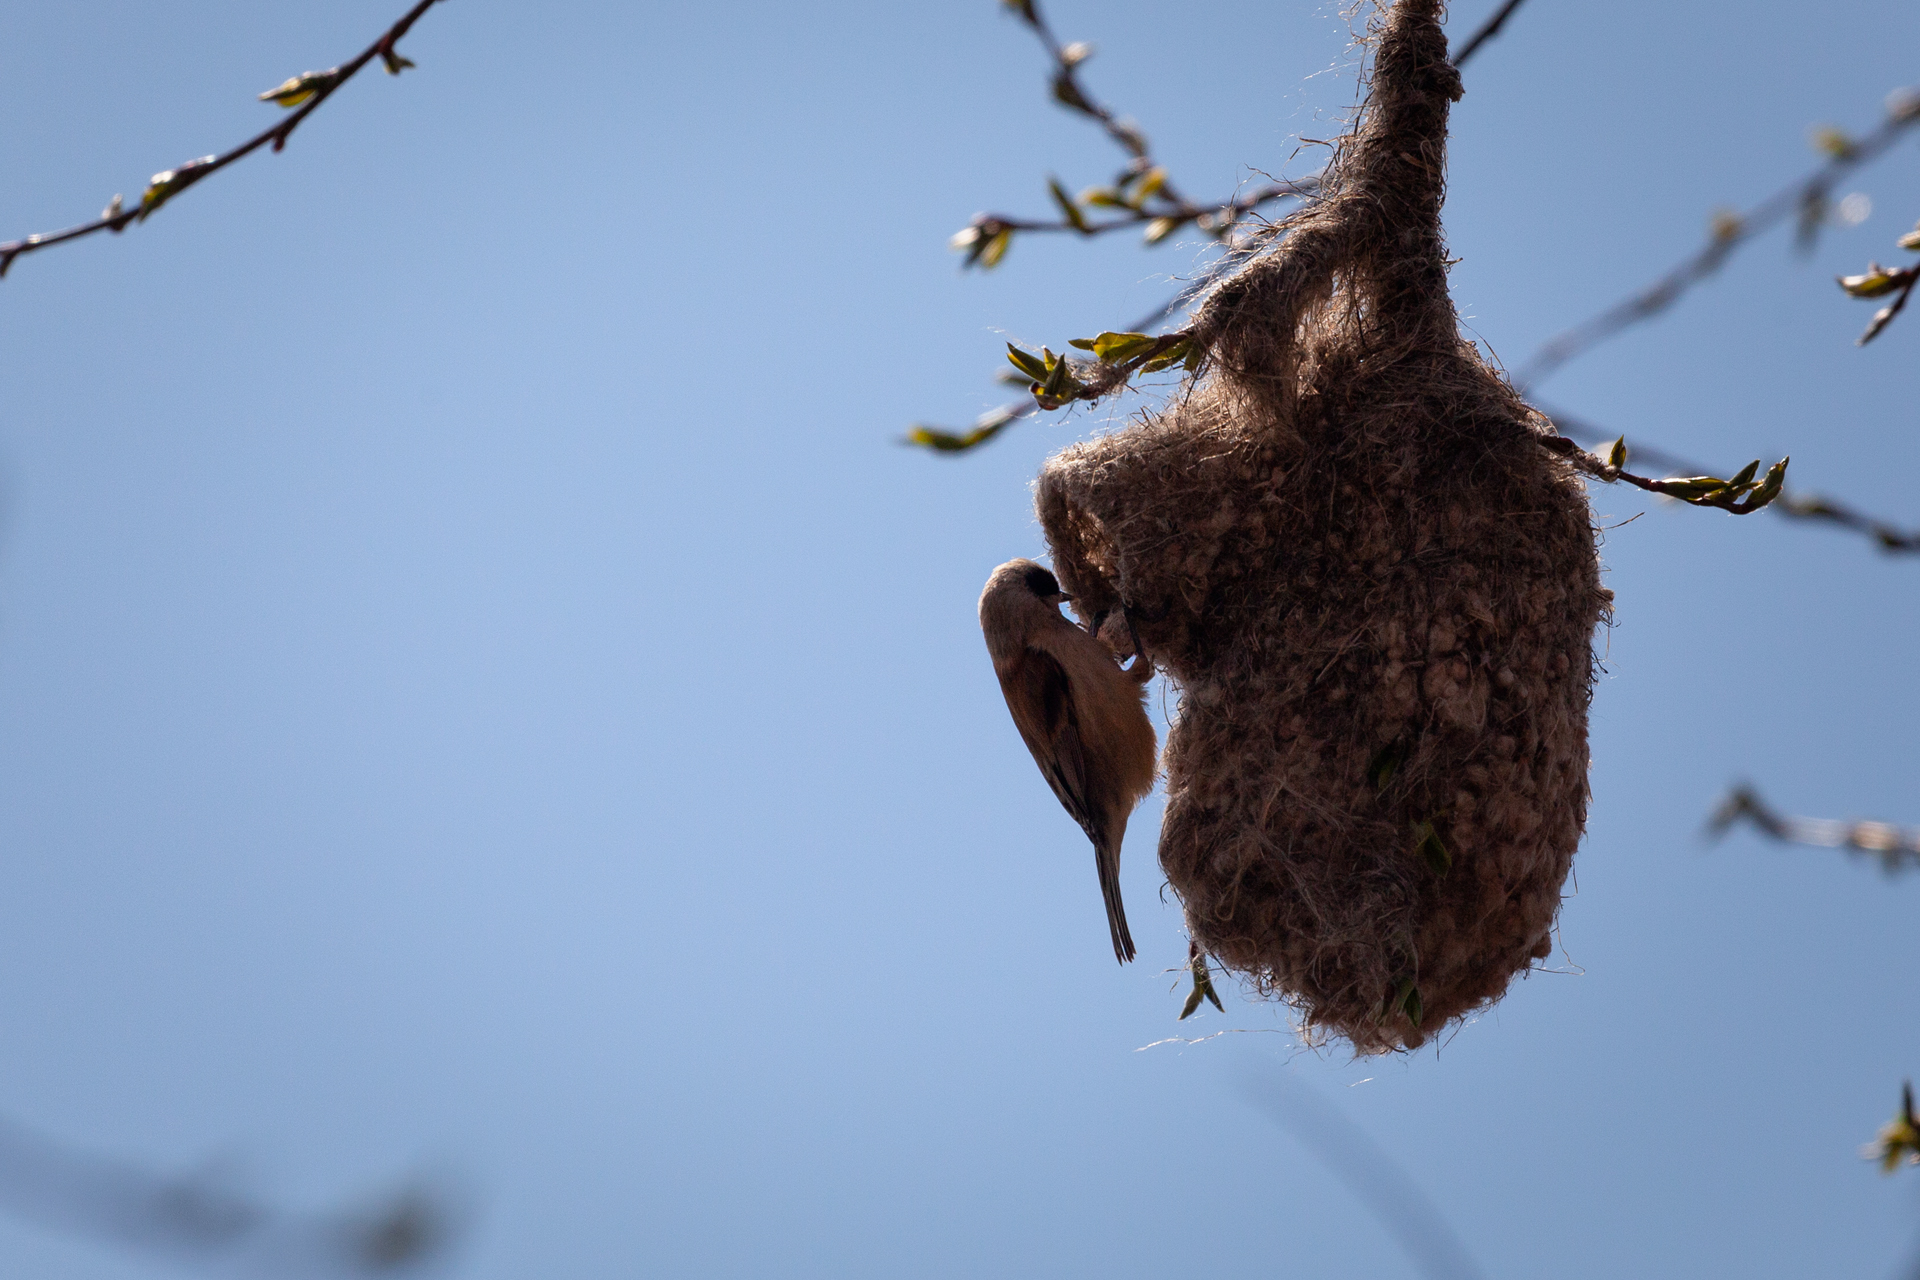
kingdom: Animalia
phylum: Chordata
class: Aves
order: Passeriformes
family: Remizidae
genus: Remiz
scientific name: Remiz pendulinus
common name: Eurasian penduline tit
